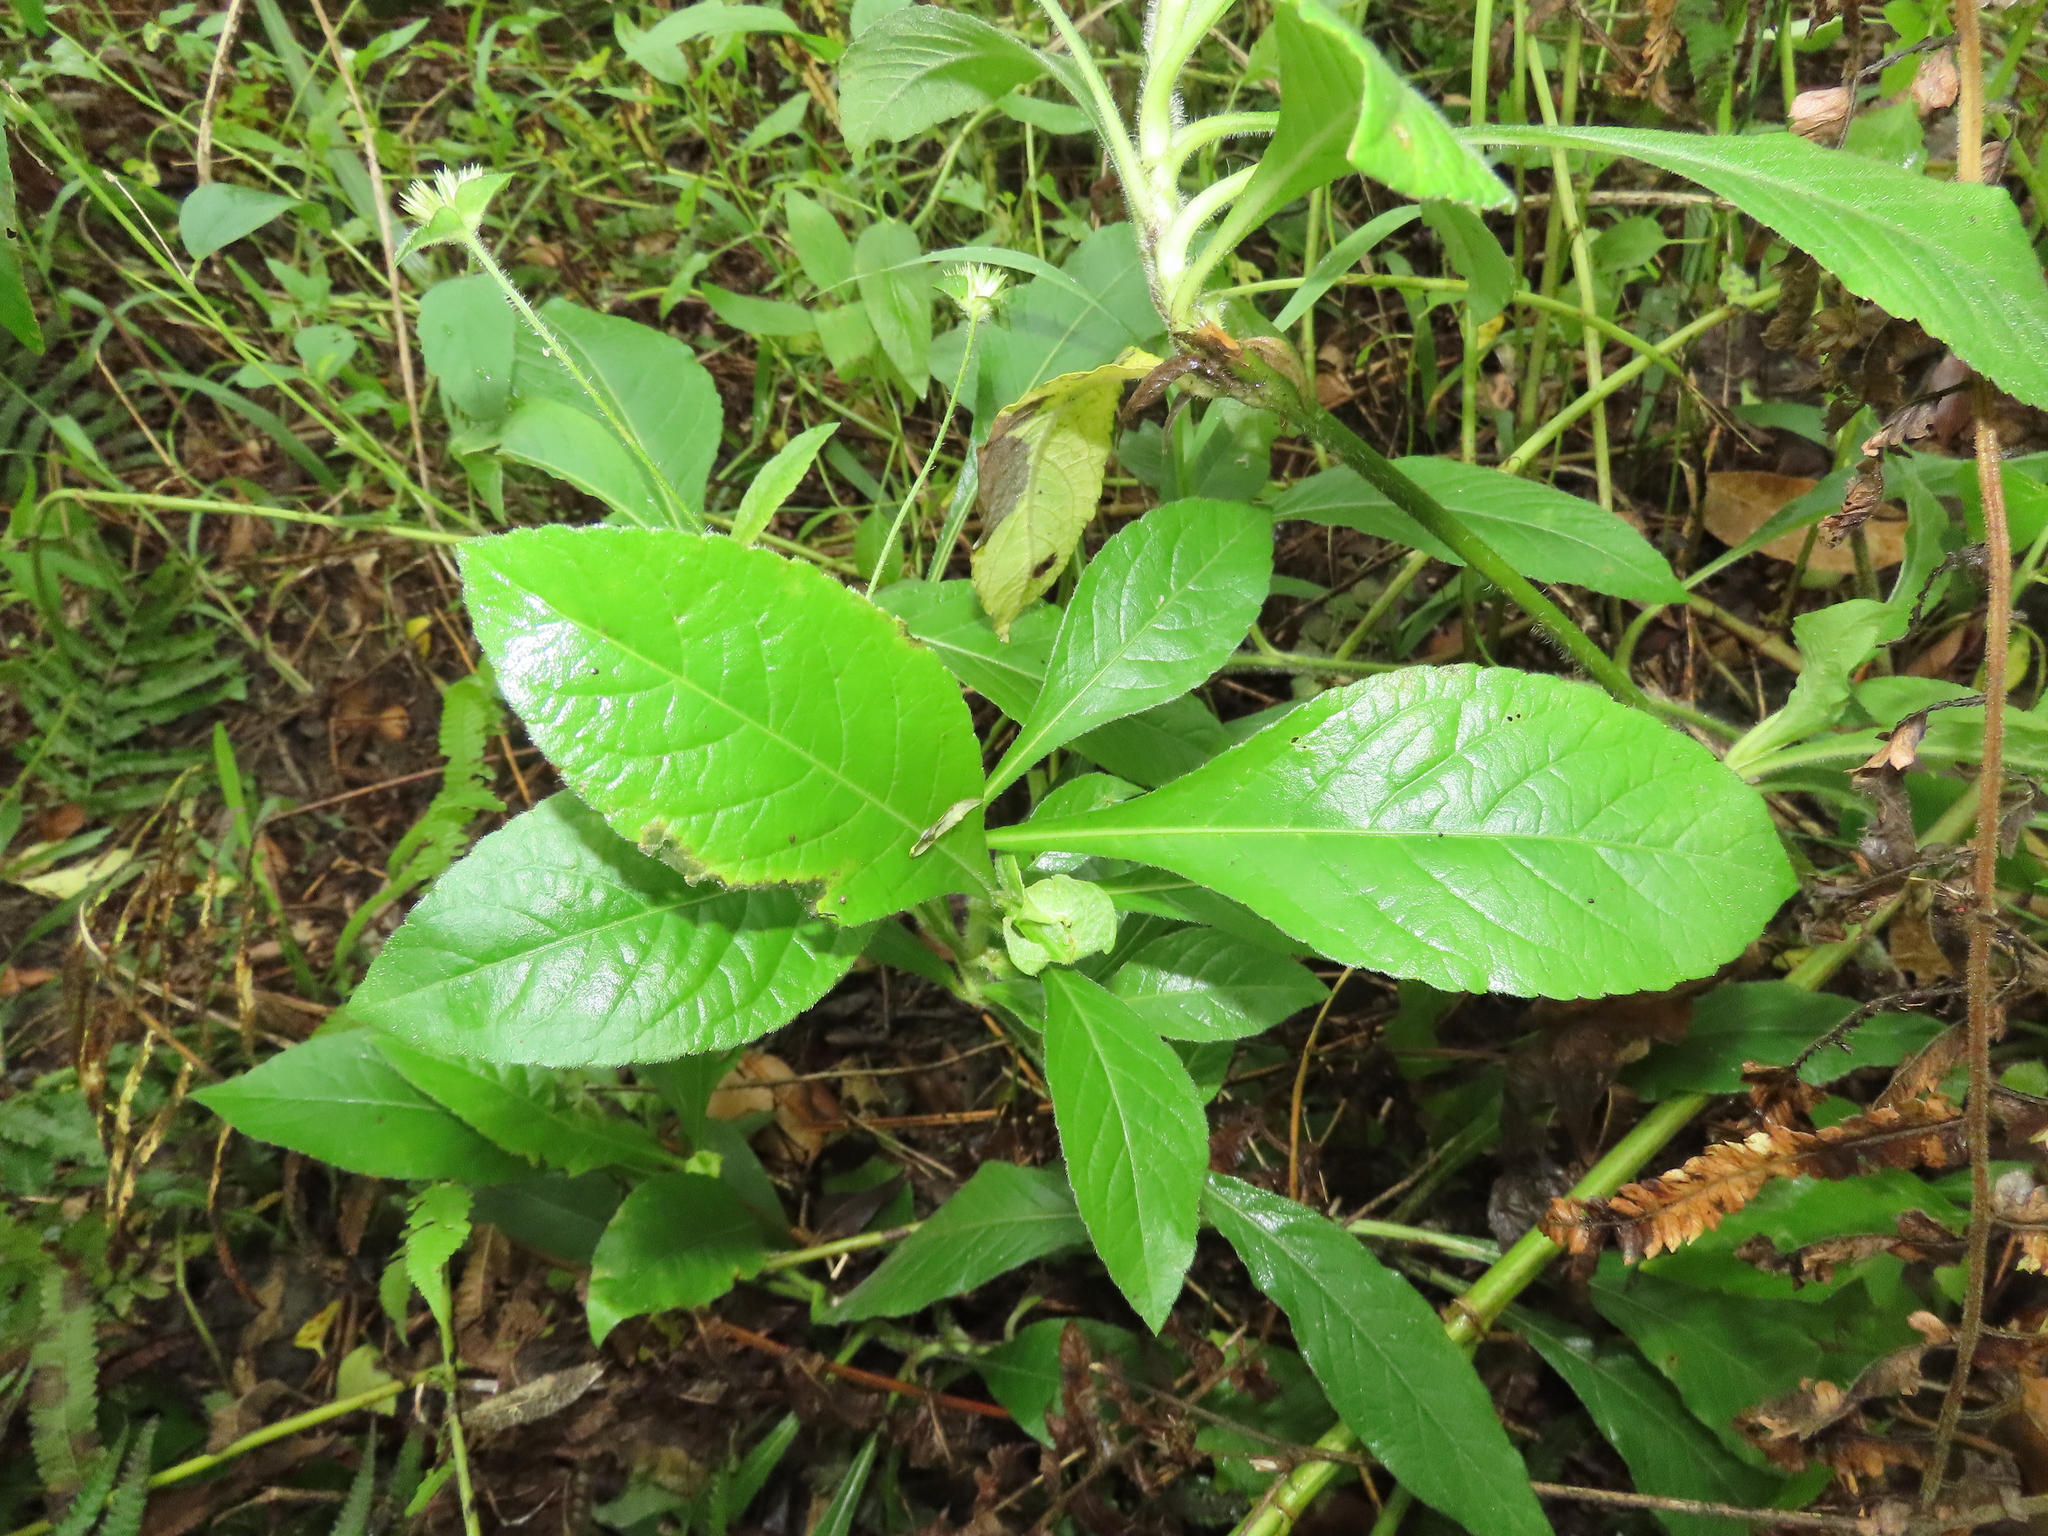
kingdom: Plantae
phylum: Tracheophyta
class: Magnoliopsida
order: Asterales
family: Asteraceae
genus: Elephantopus
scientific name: Elephantopus mollis
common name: Soft elephantsfoot
